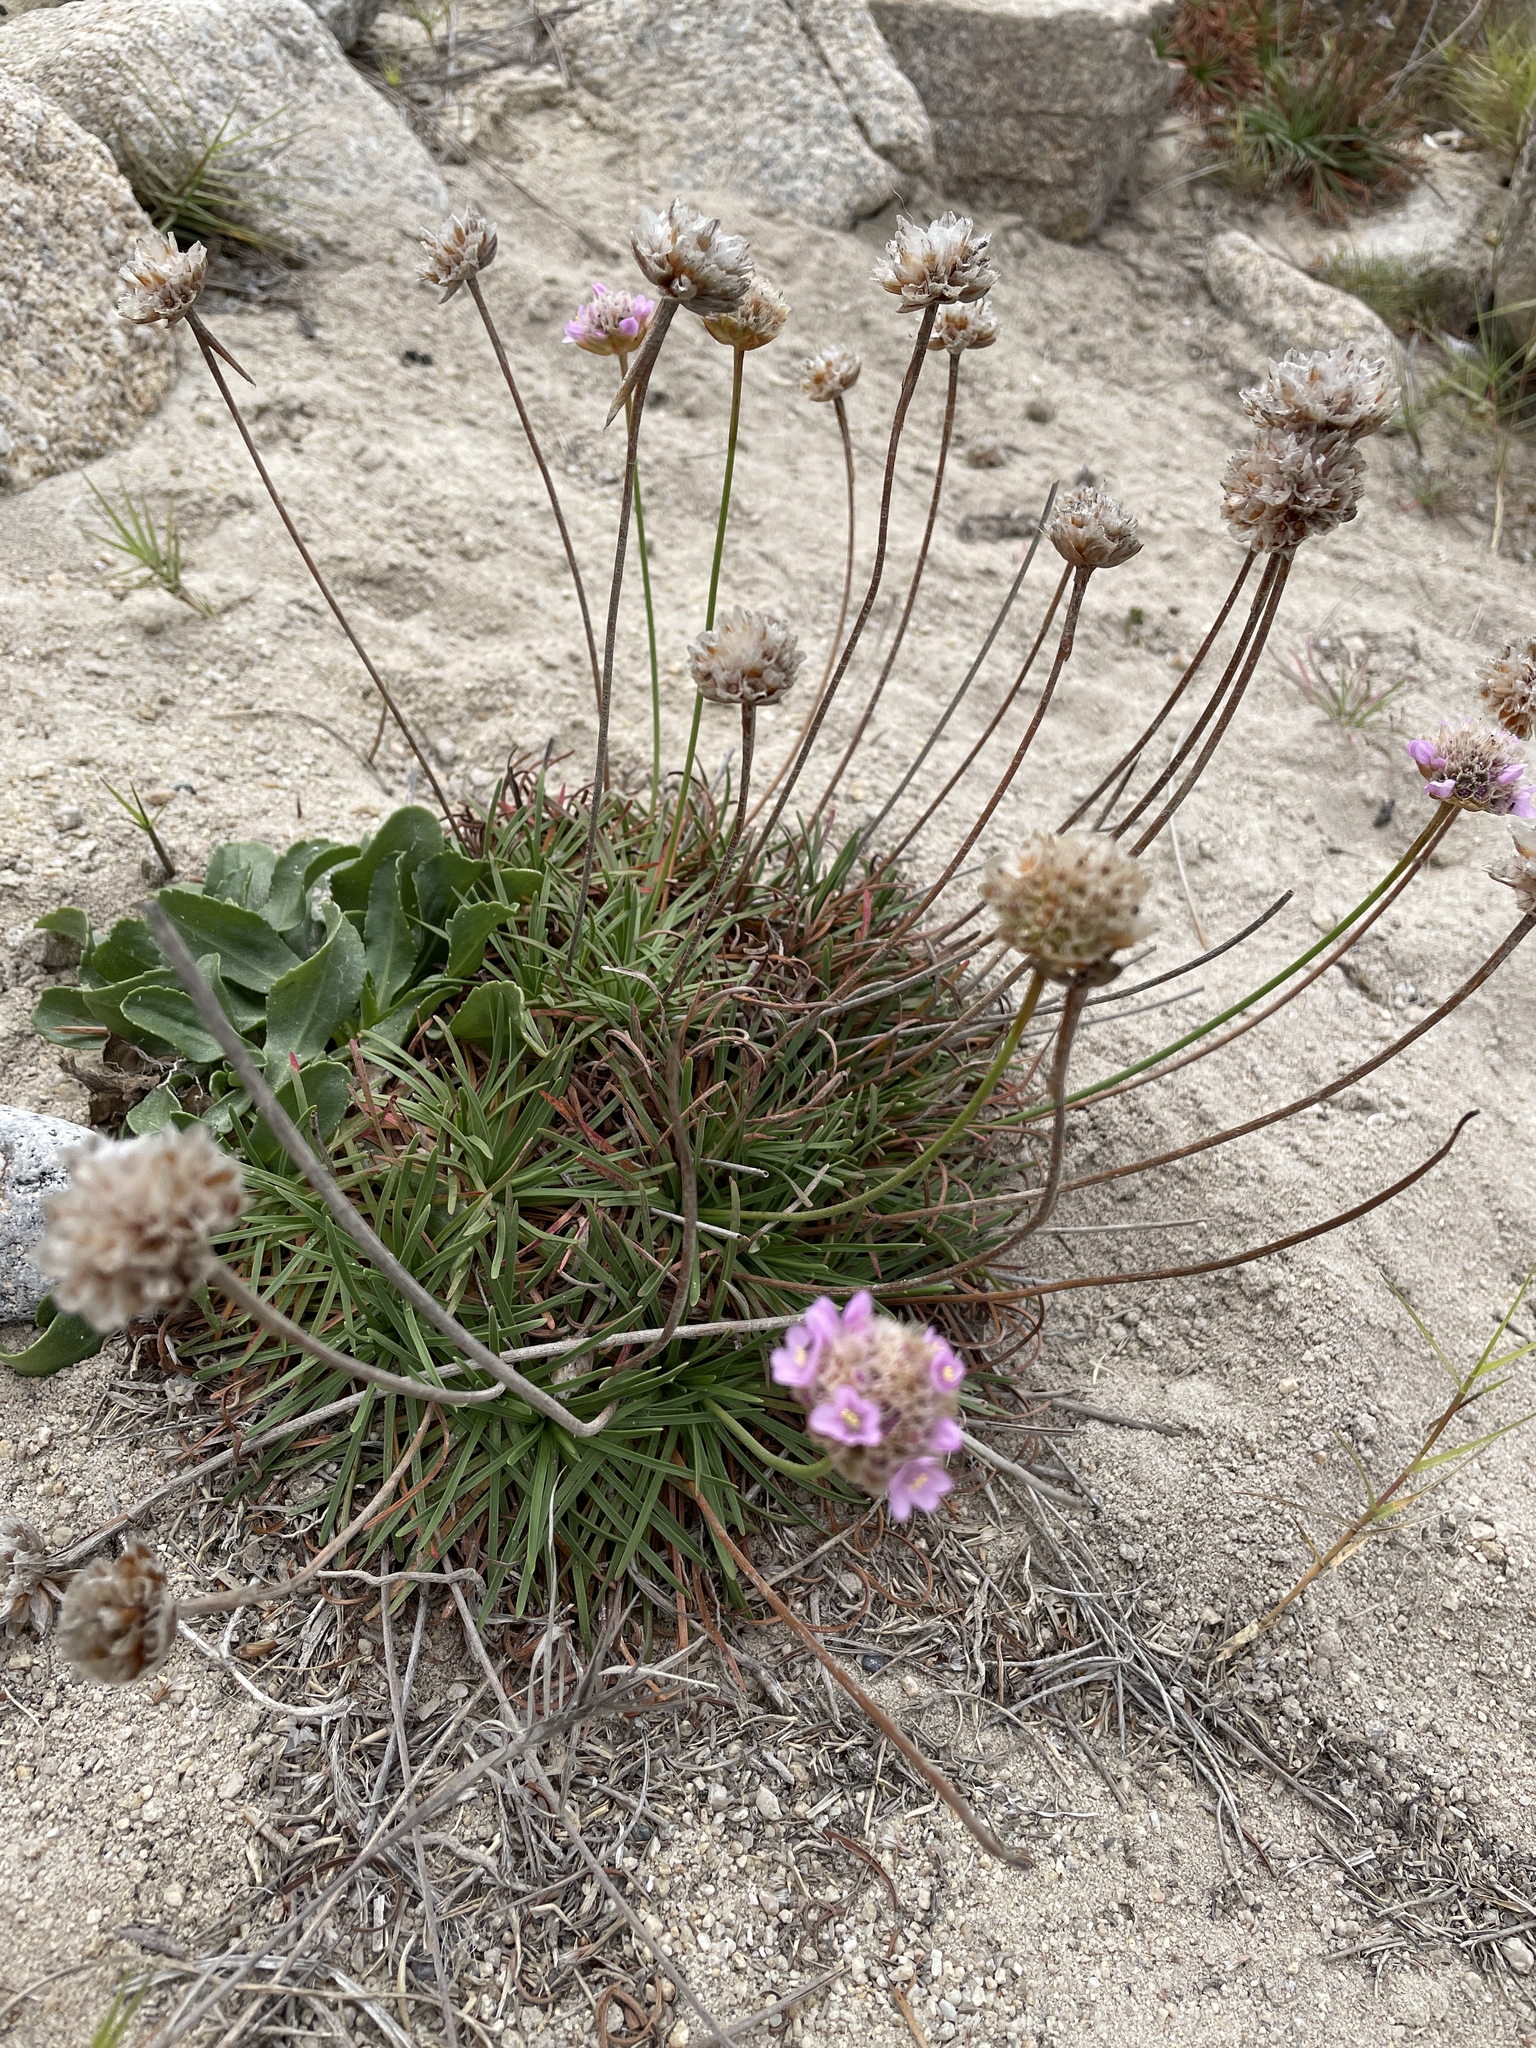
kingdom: Plantae
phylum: Tracheophyta
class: Magnoliopsida
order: Caryophyllales
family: Plumbaginaceae
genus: Armeria
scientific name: Armeria maritima
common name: Thrift
